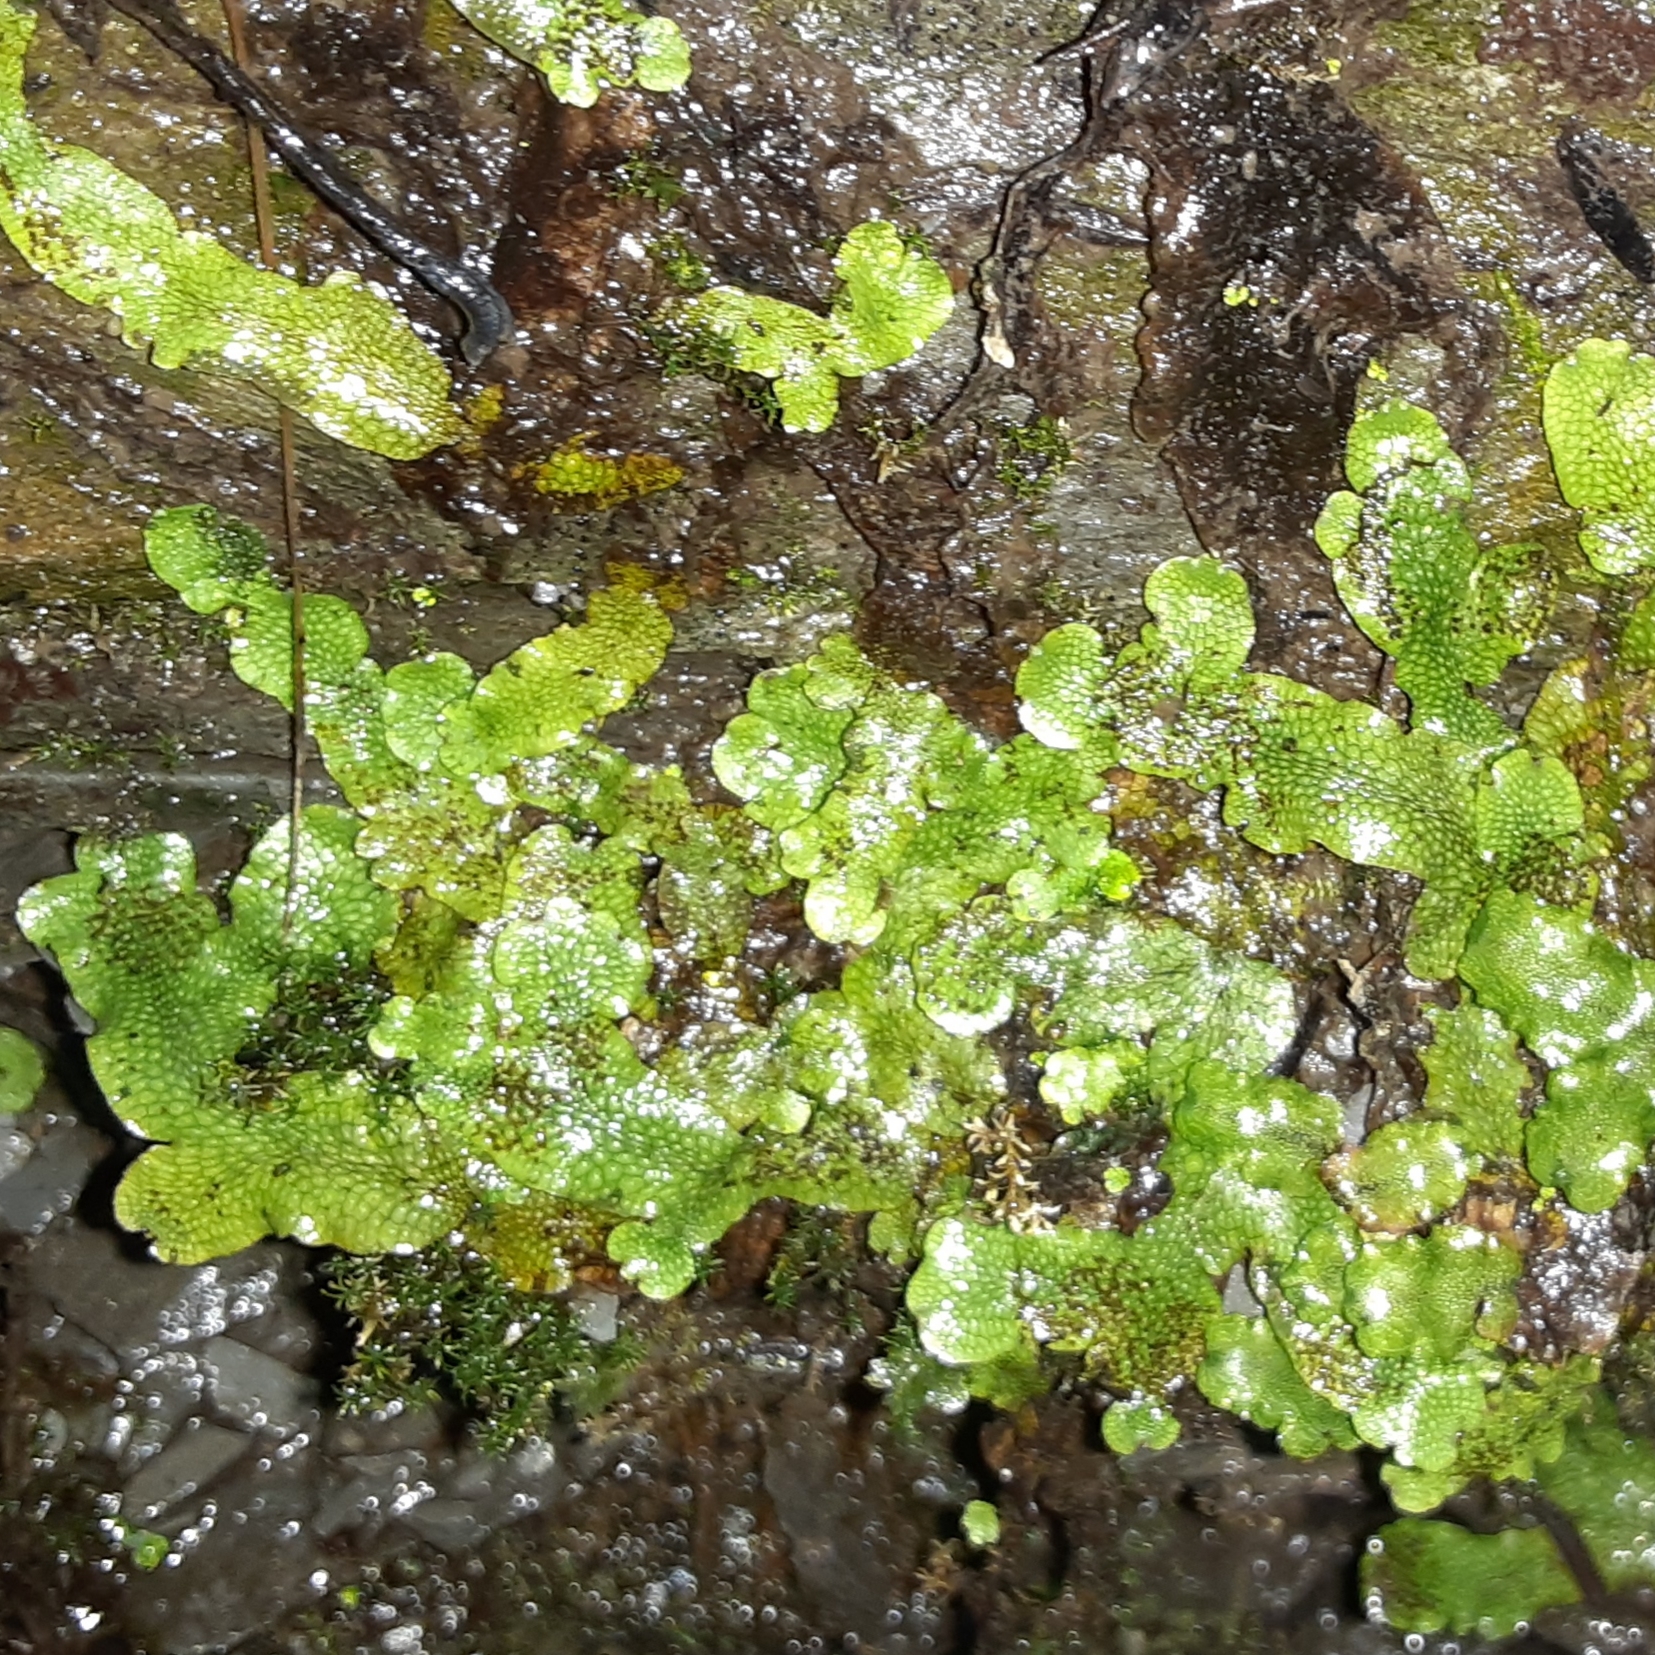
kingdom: Plantae
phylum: Marchantiophyta
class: Marchantiopsida
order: Marchantiales
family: Conocephalaceae
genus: Conocephalum
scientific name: Conocephalum salebrosum
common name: Cat-tongue liverwort
